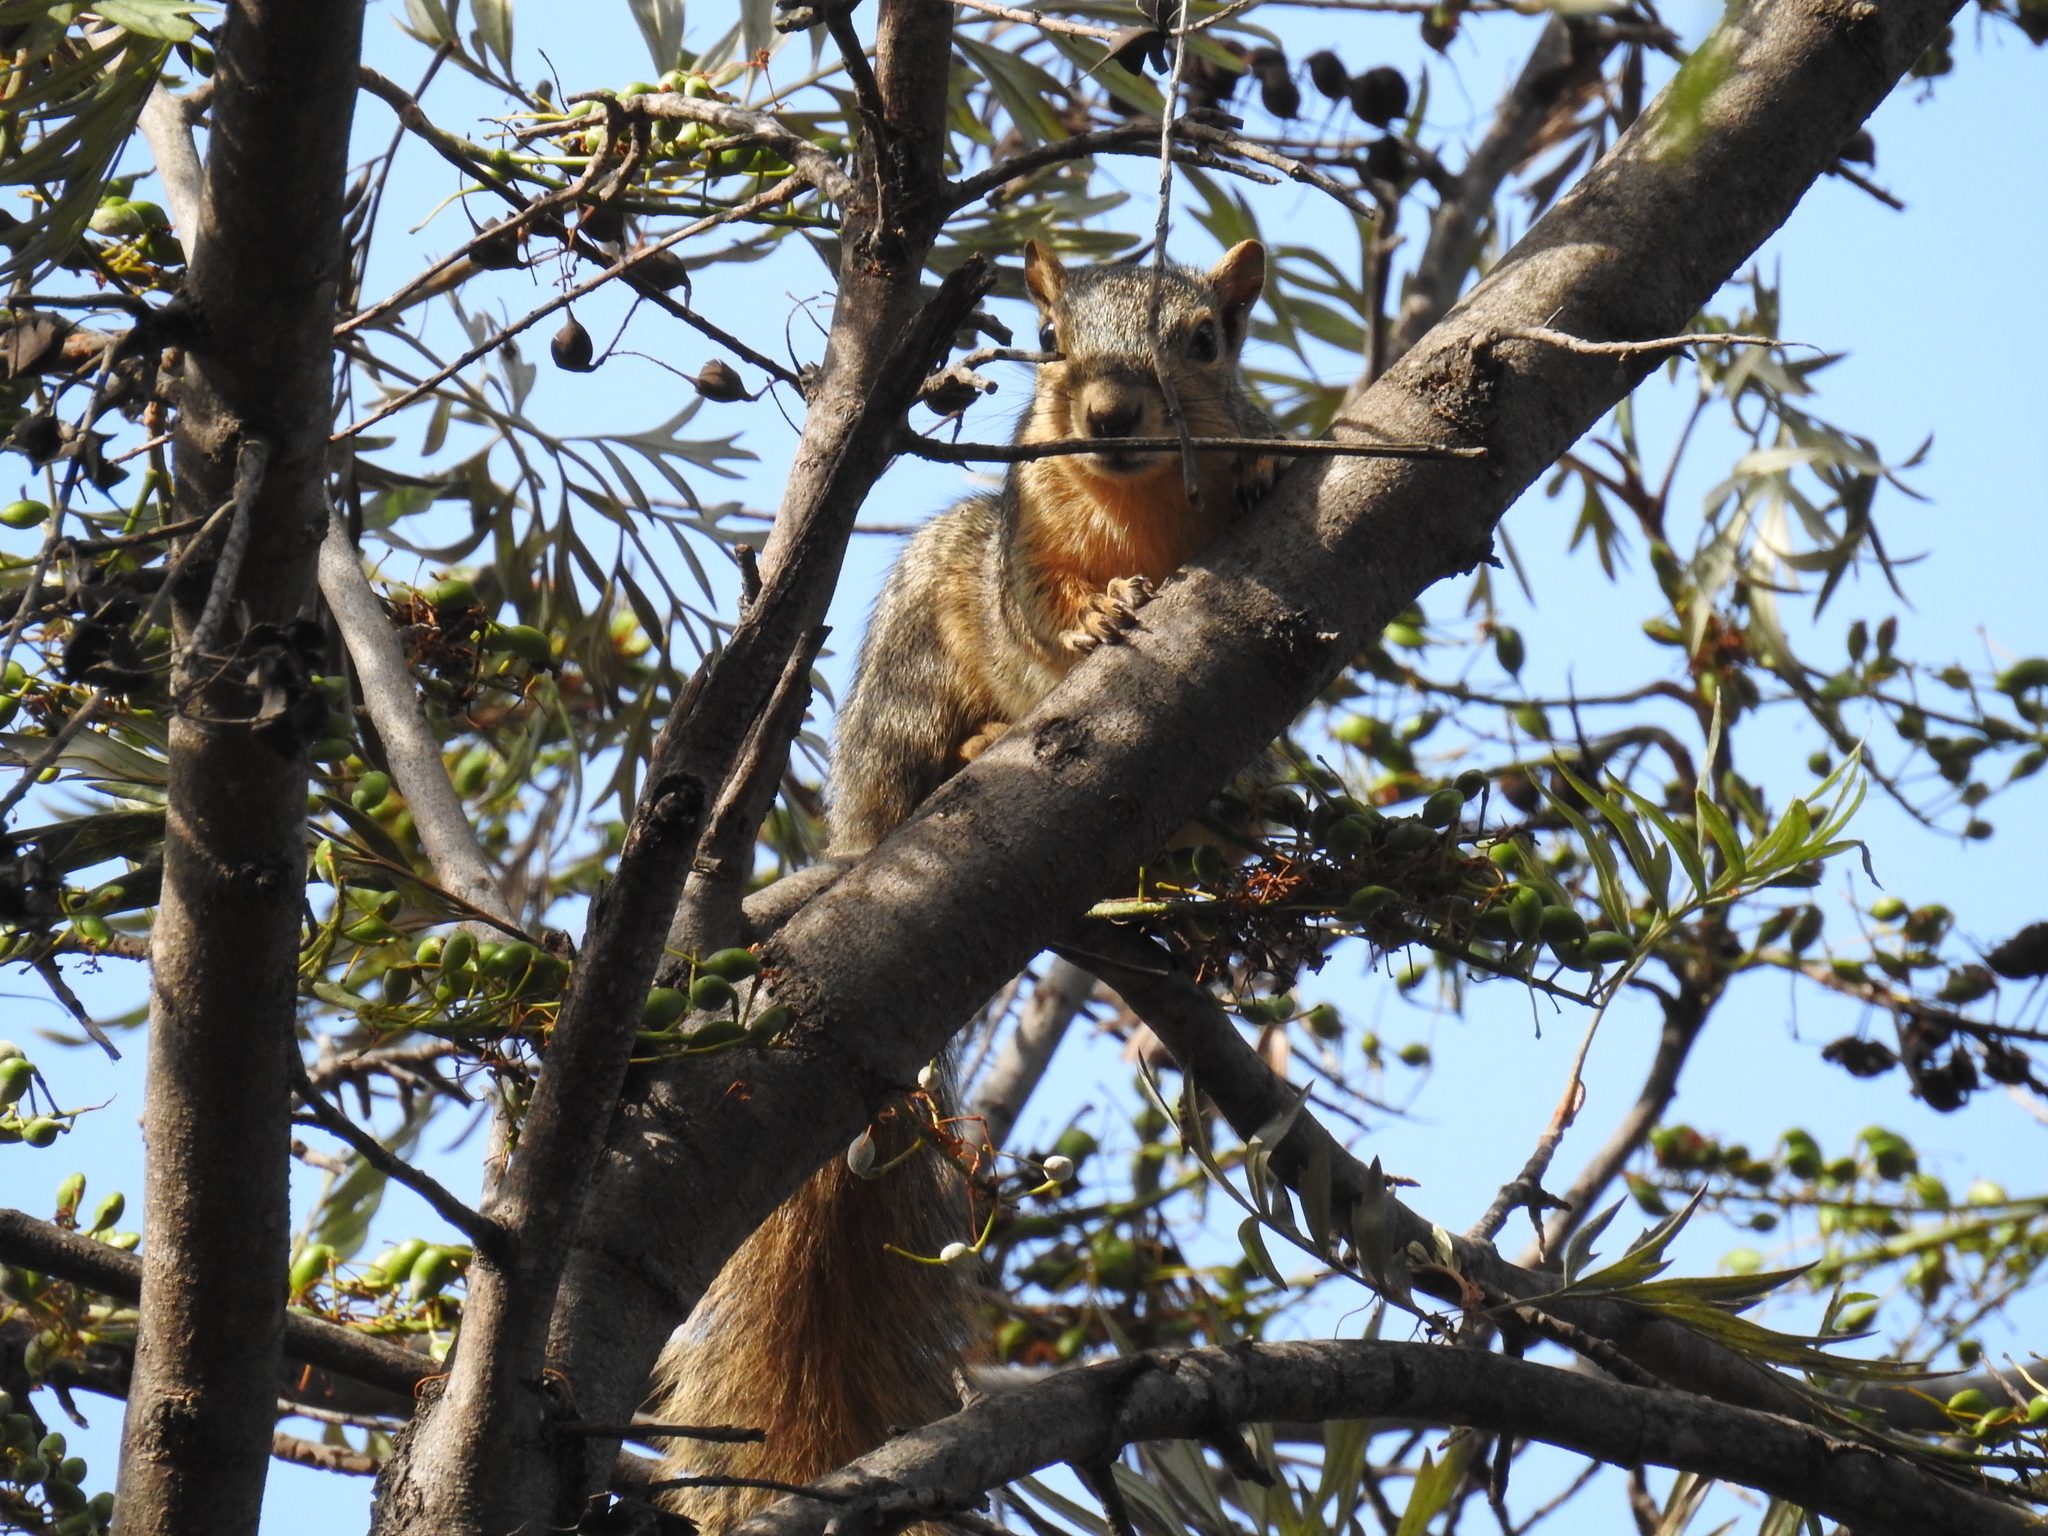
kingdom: Animalia
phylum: Chordata
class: Mammalia
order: Rodentia
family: Sciuridae
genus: Sciurus
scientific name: Sciurus niger
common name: Fox squirrel
